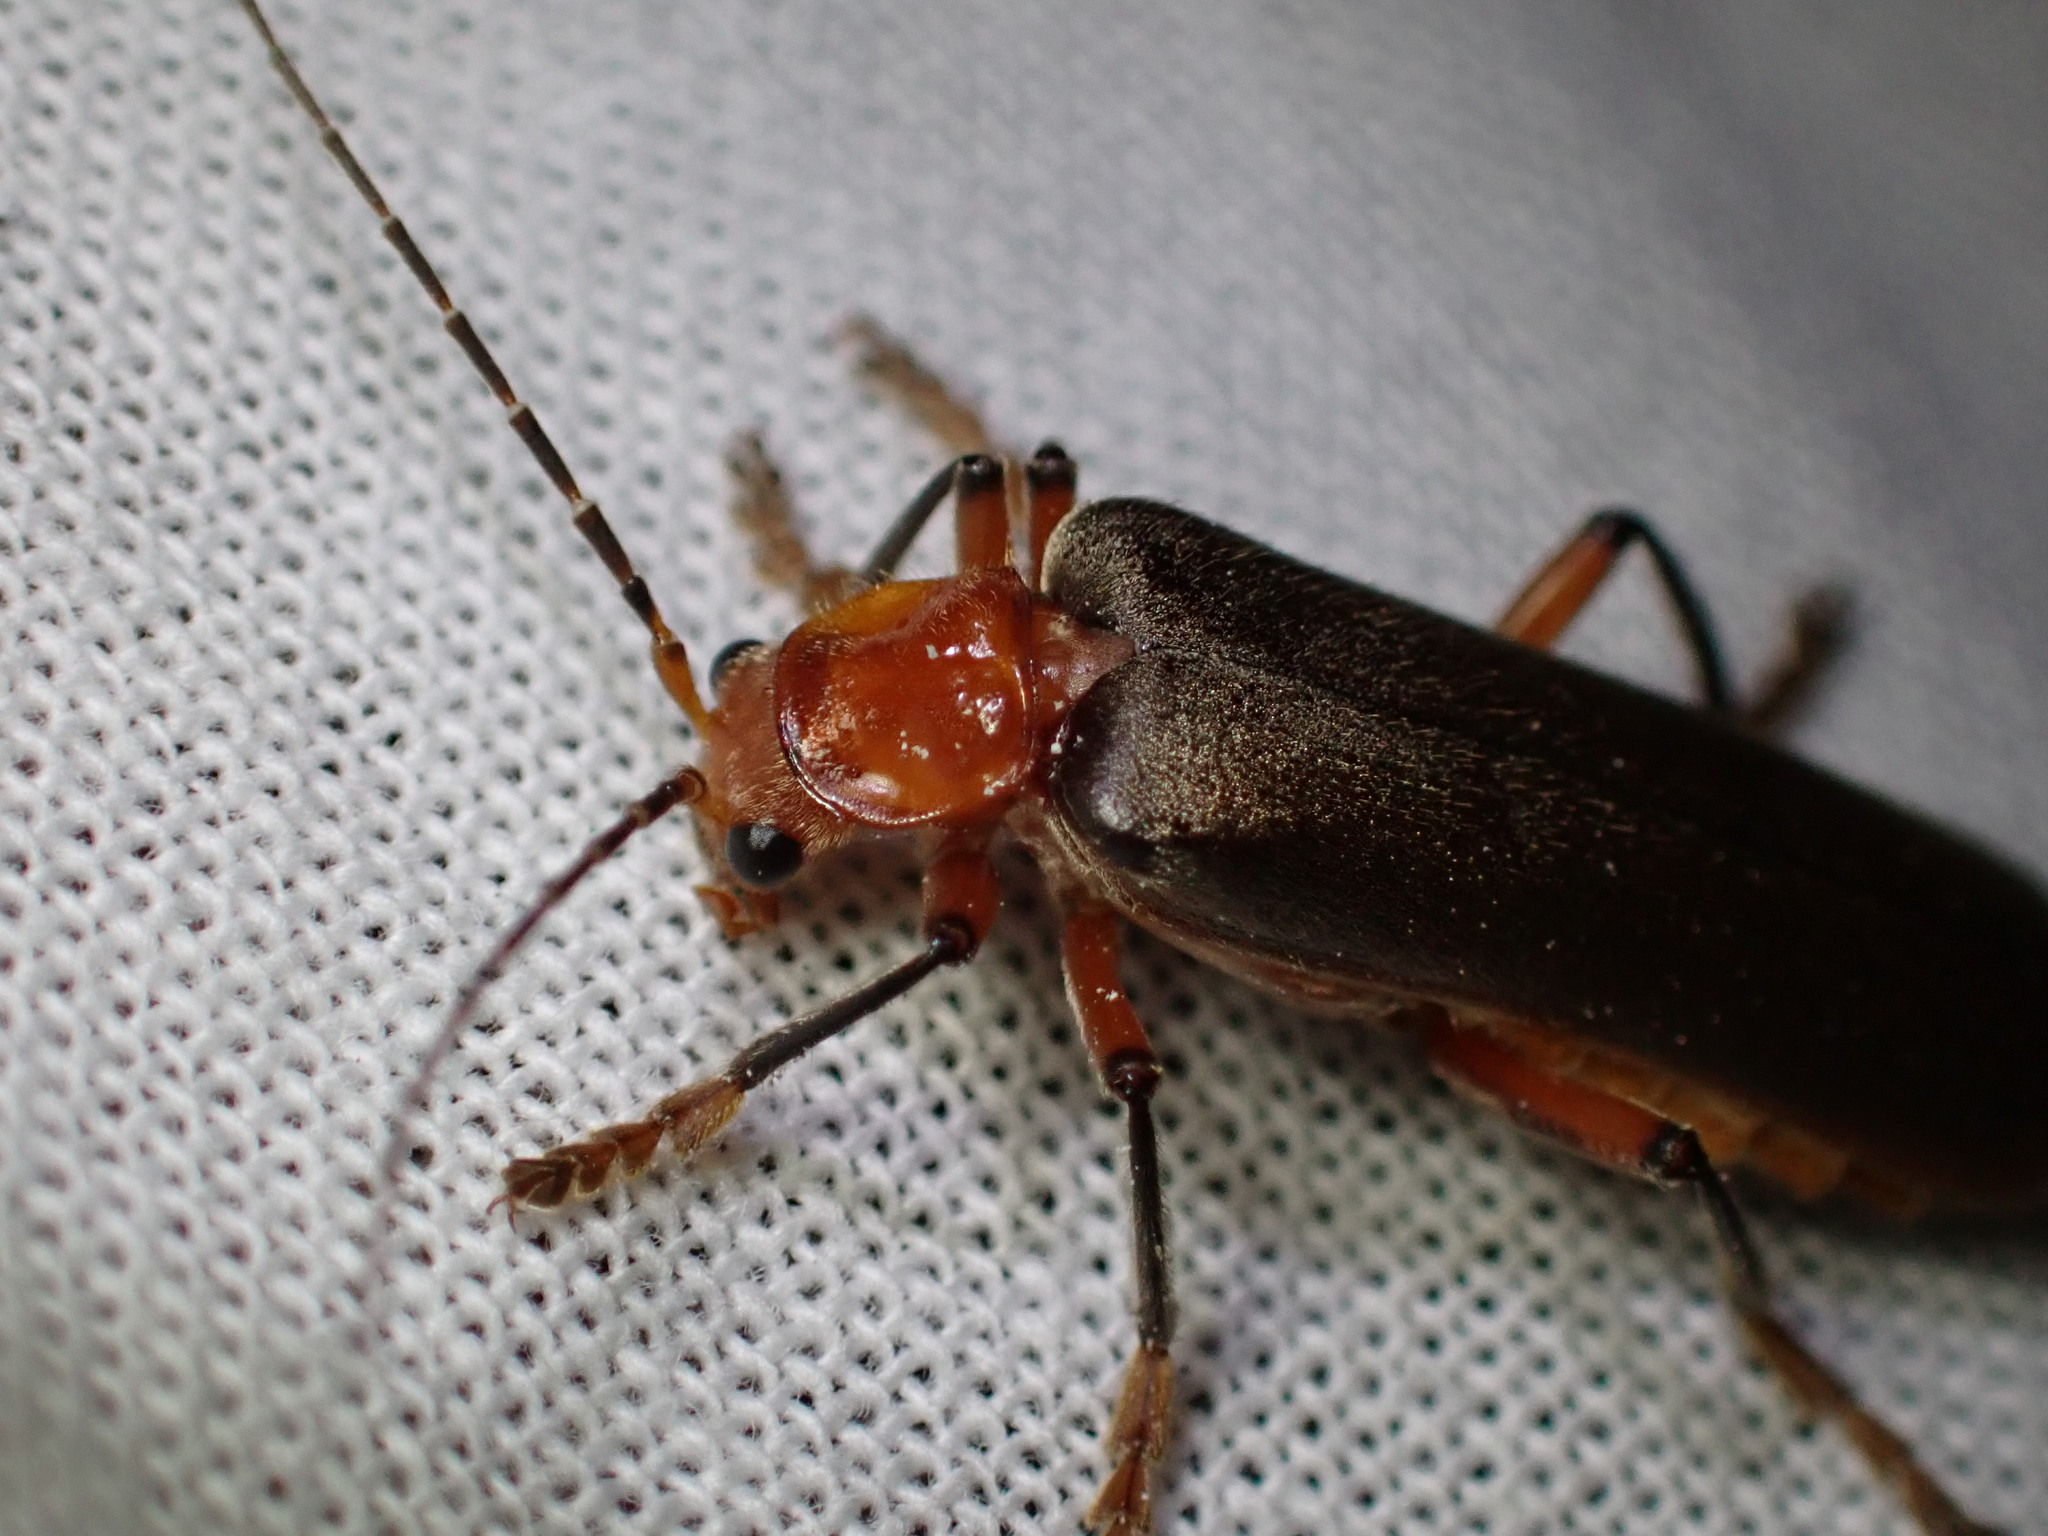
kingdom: Animalia
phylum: Arthropoda
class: Insecta
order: Coleoptera
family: Cantharidae
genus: Pacificanthia
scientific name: Pacificanthia consors
